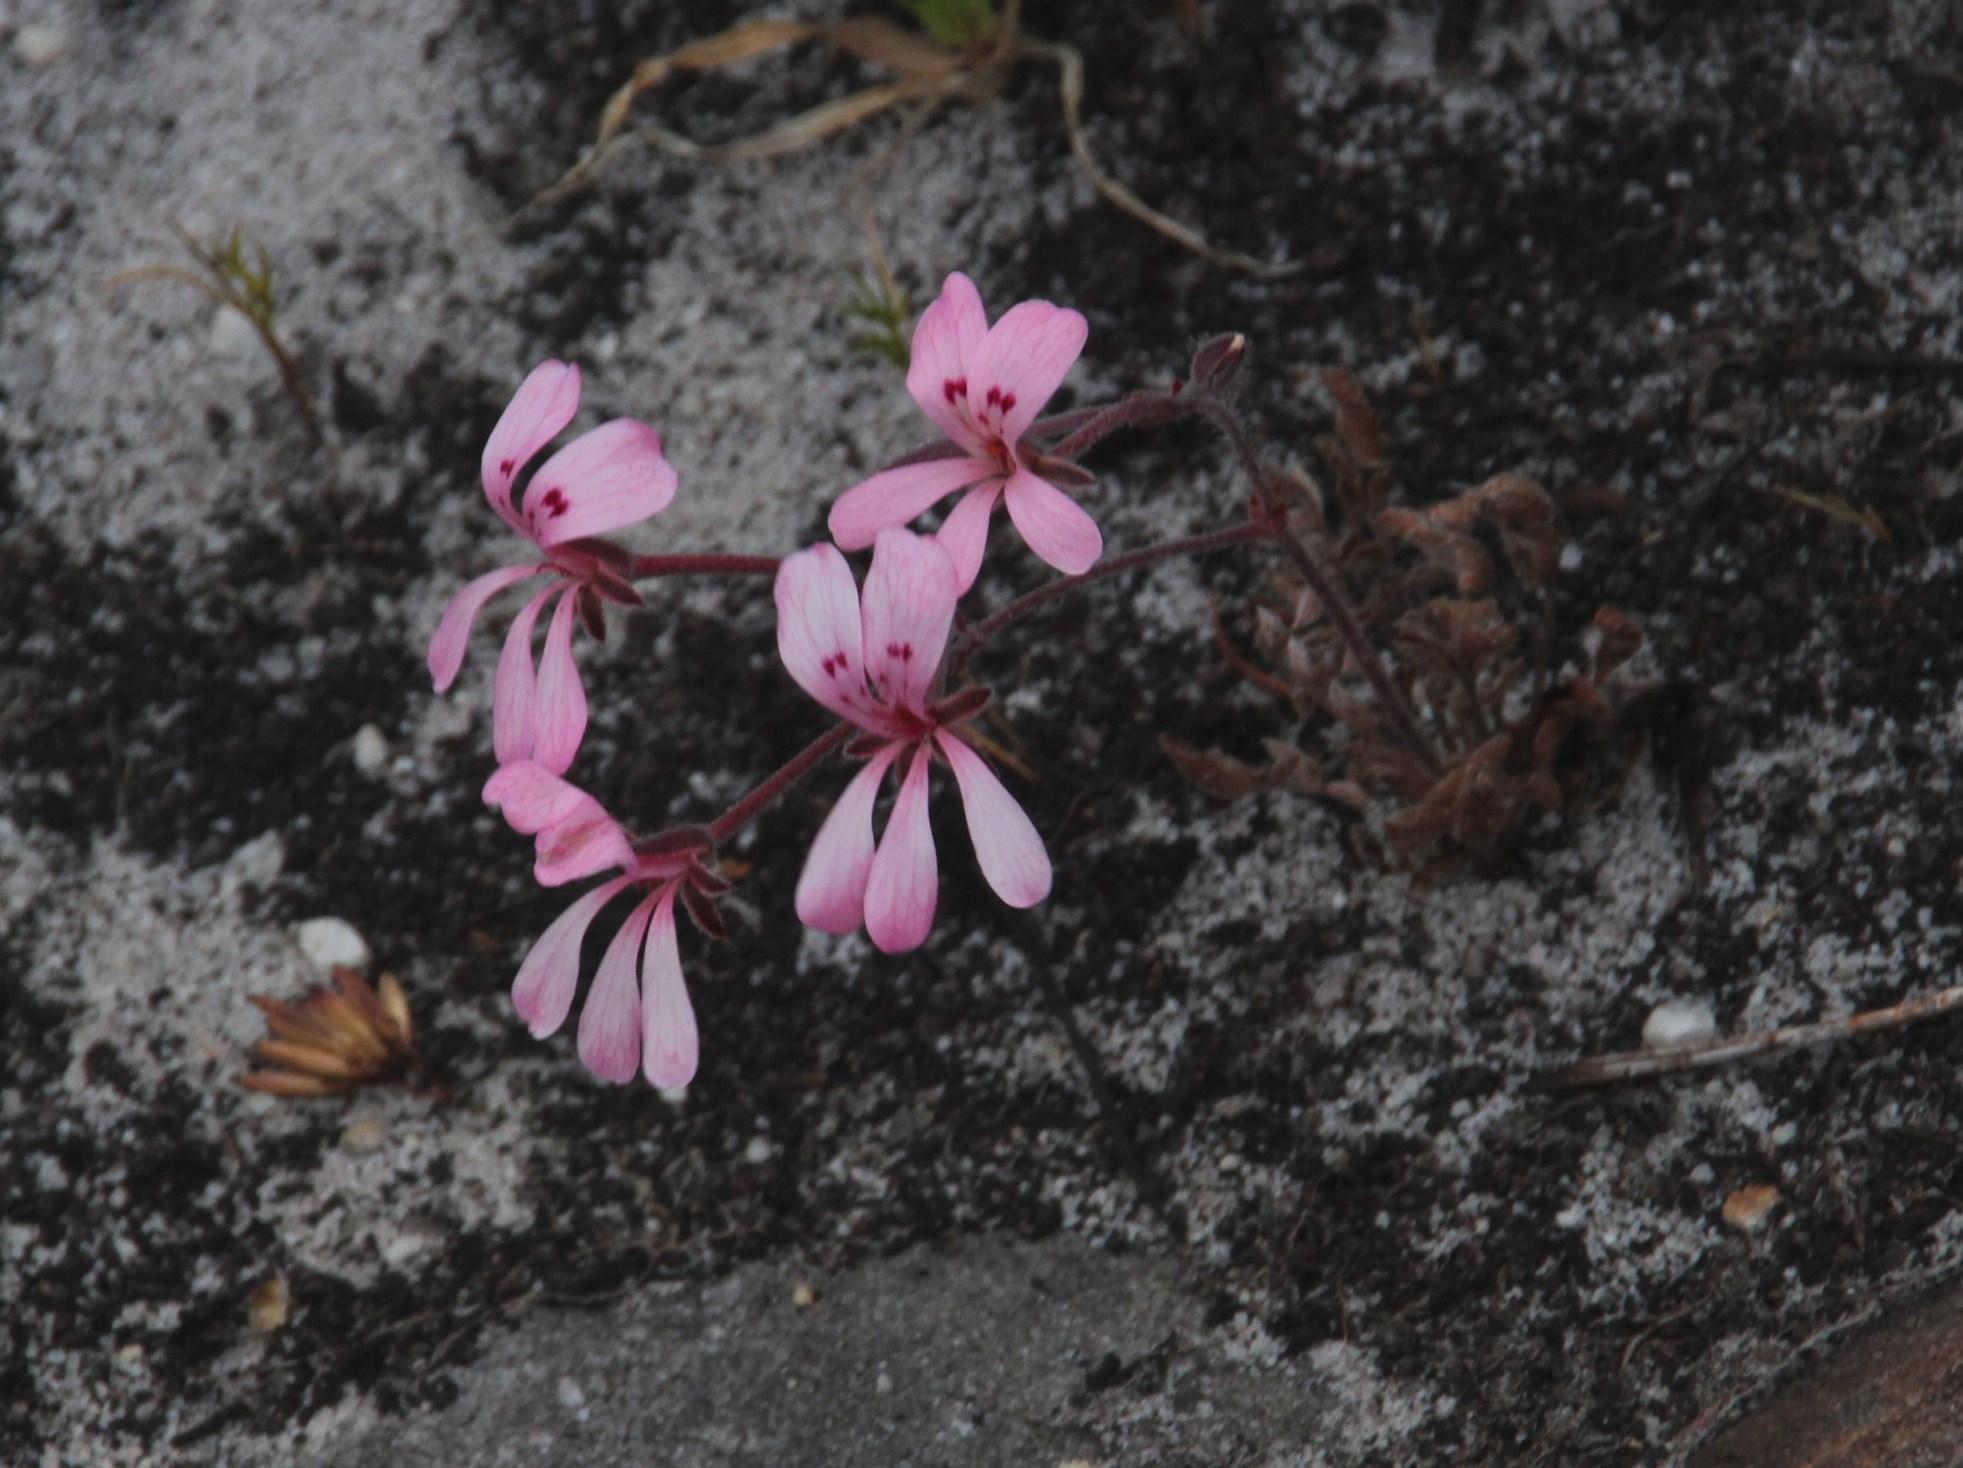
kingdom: Plantae
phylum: Tracheophyta
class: Magnoliopsida
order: Geraniales
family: Geraniaceae
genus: Pelargonium
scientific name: Pelargonium pinnatum
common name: Pinnated pelargonium
